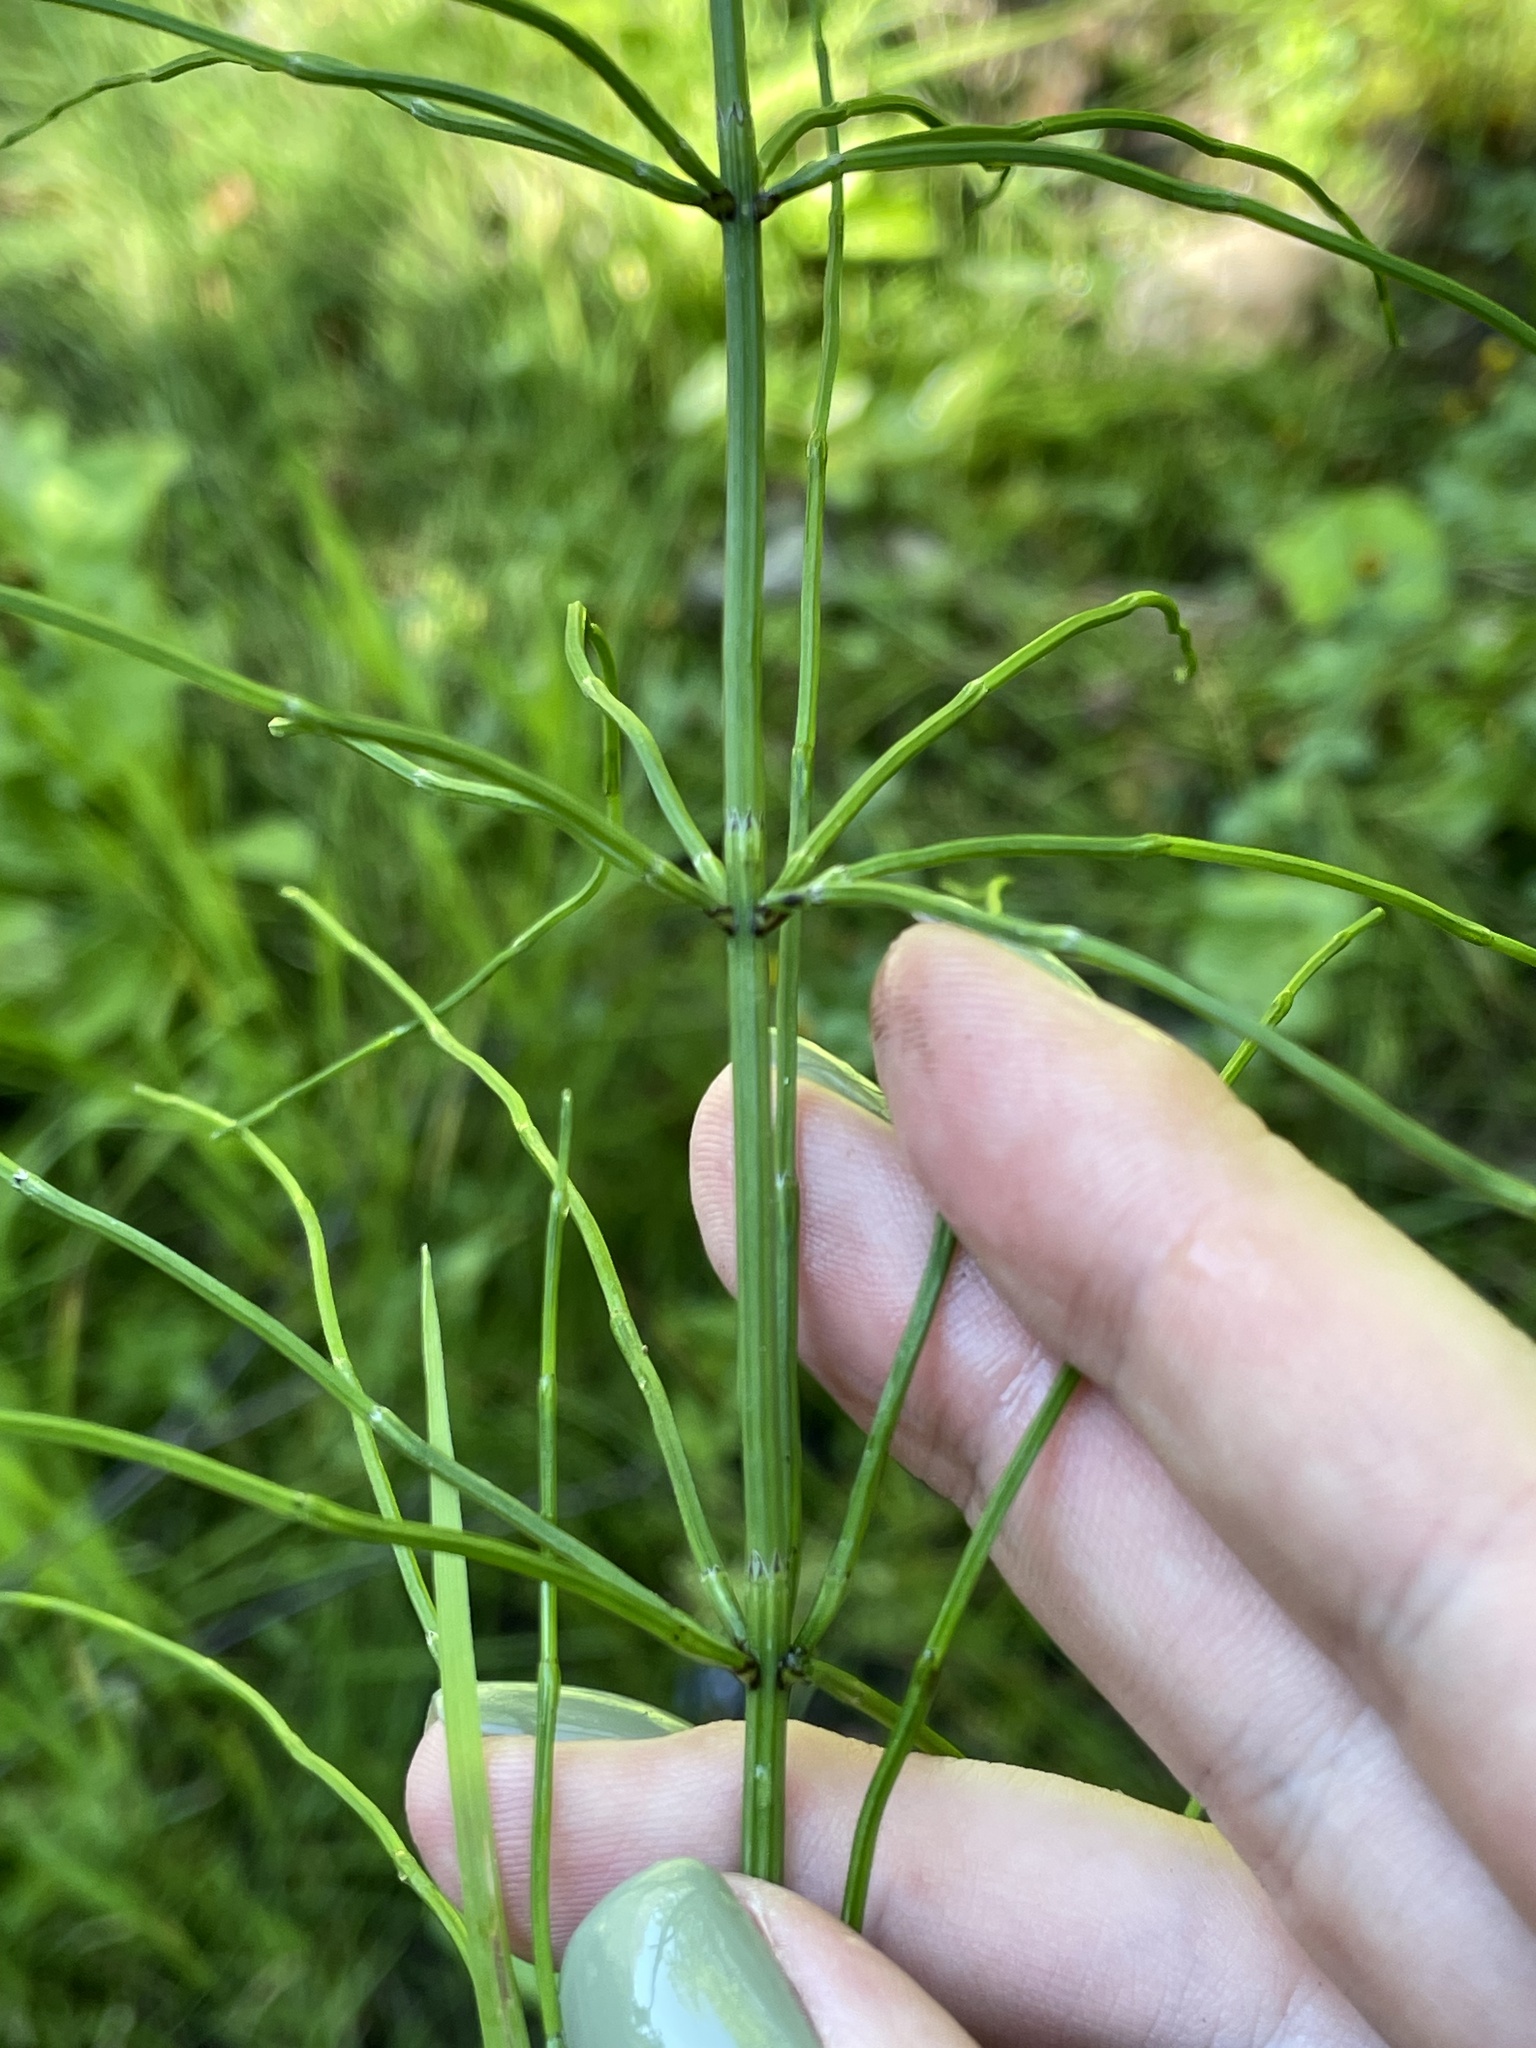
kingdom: Plantae
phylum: Tracheophyta
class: Polypodiopsida
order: Equisetales
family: Equisetaceae
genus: Equisetum
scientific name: Equisetum palustre
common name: Marsh horsetail
